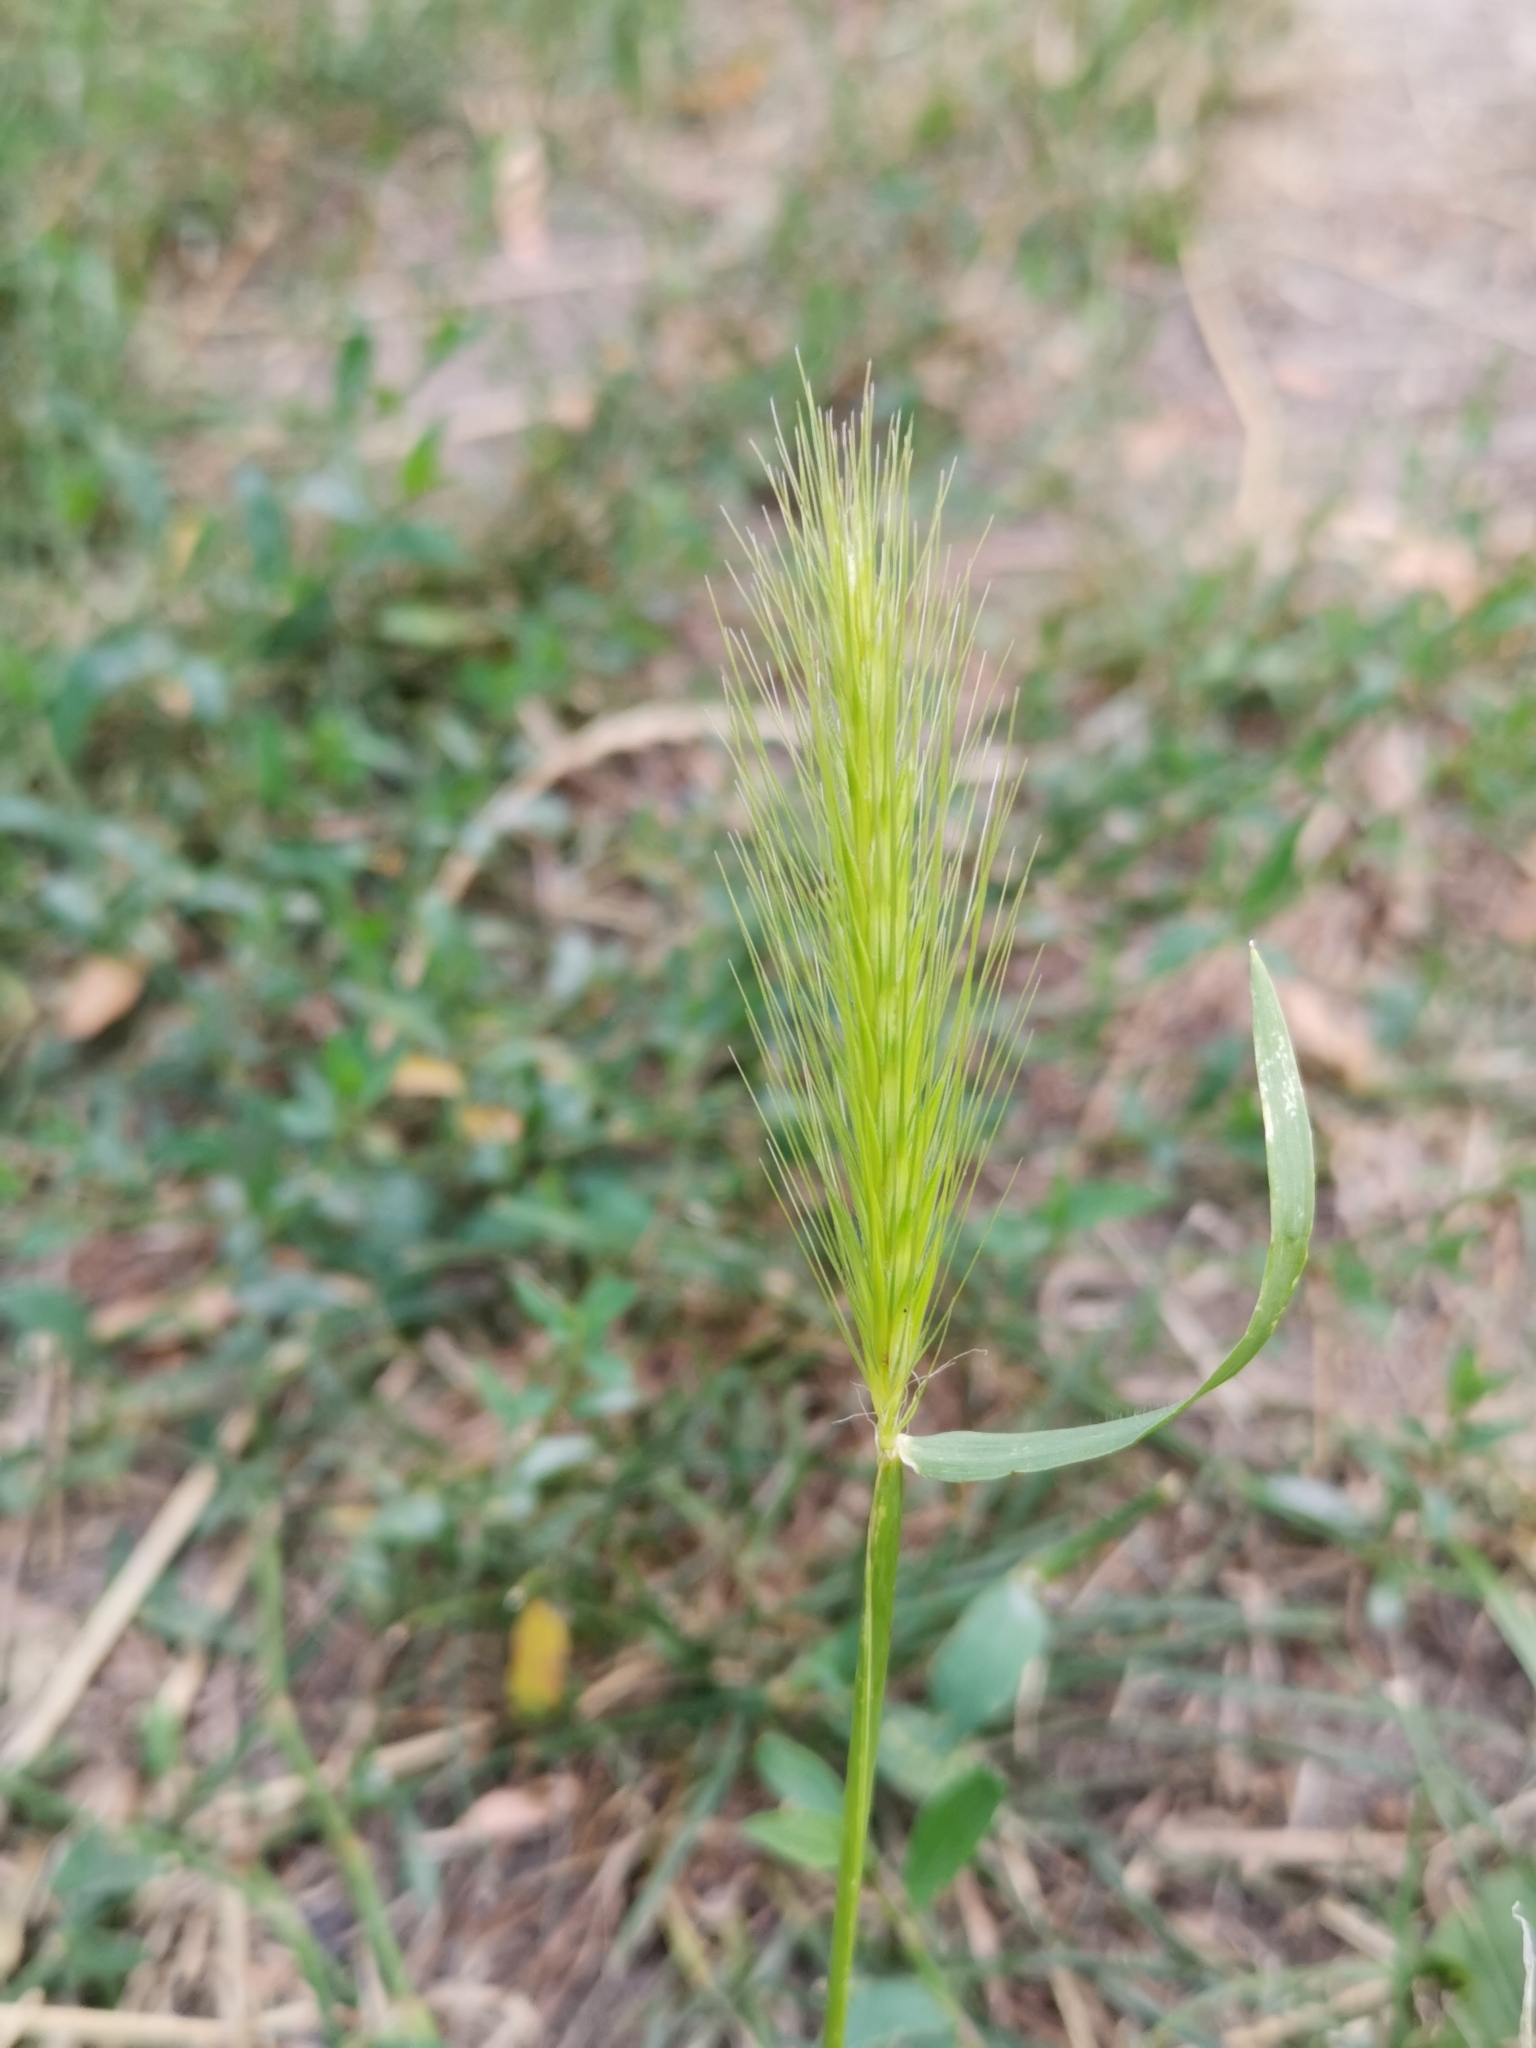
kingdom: Plantae
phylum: Tracheophyta
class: Liliopsida
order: Poales
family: Poaceae
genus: Hordeum
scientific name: Hordeum murinum
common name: Wall barley
